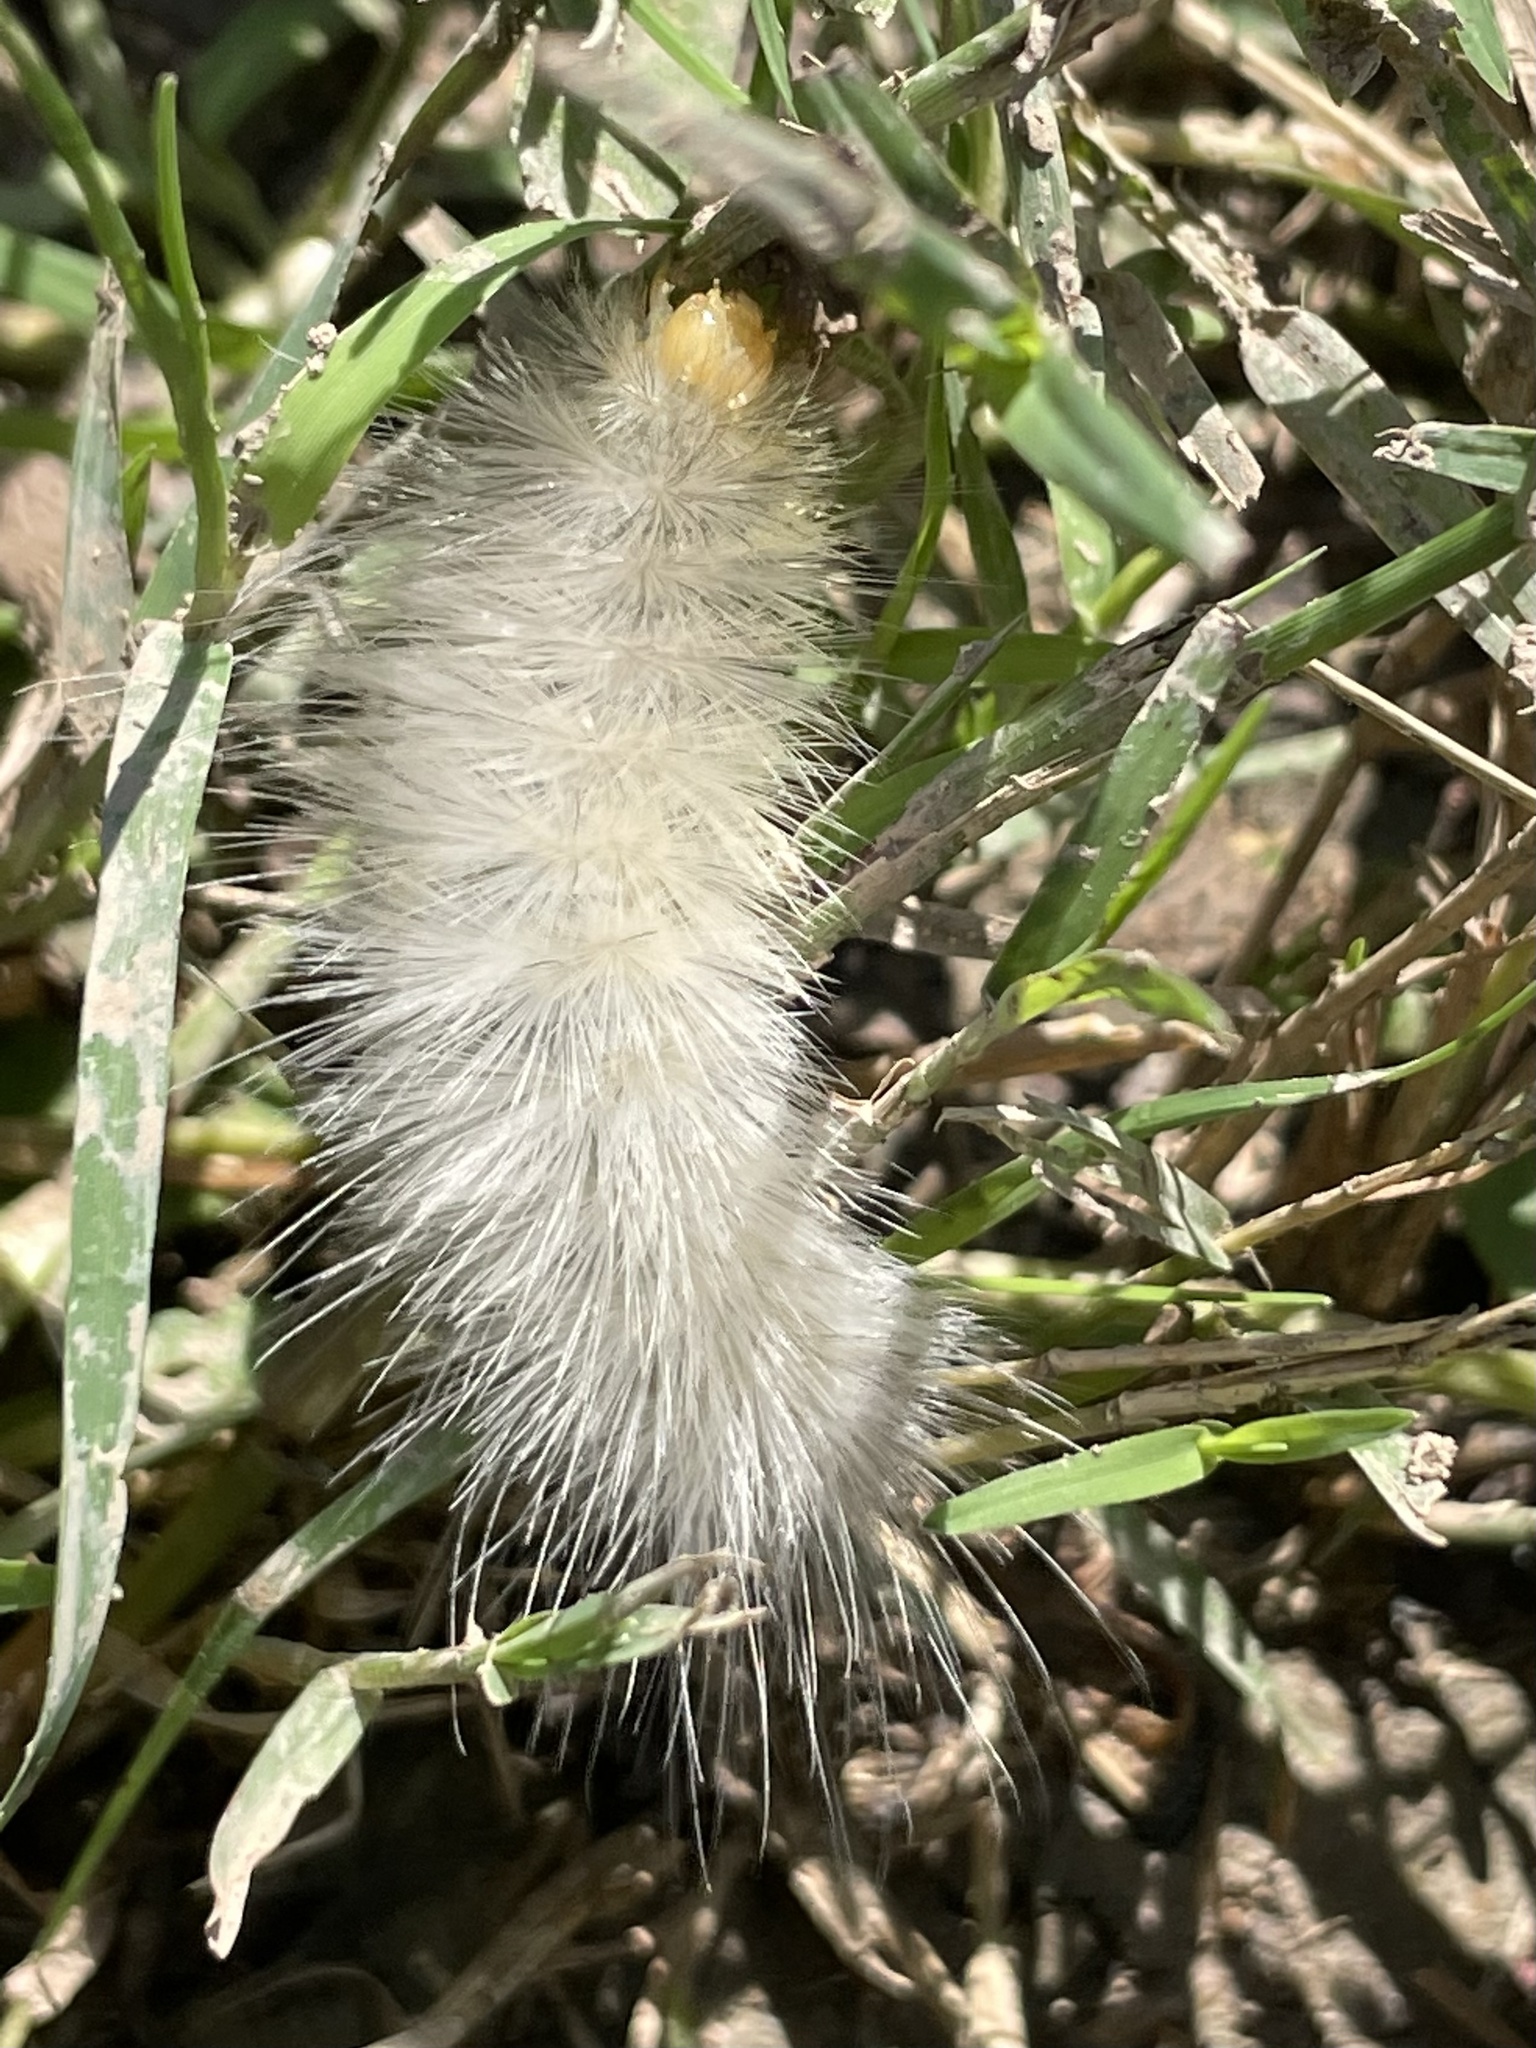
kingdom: Animalia
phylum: Arthropoda
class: Insecta
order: Lepidoptera
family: Erebidae
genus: Spilosoma
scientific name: Spilosoma virginica
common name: Virginia tiger moth
